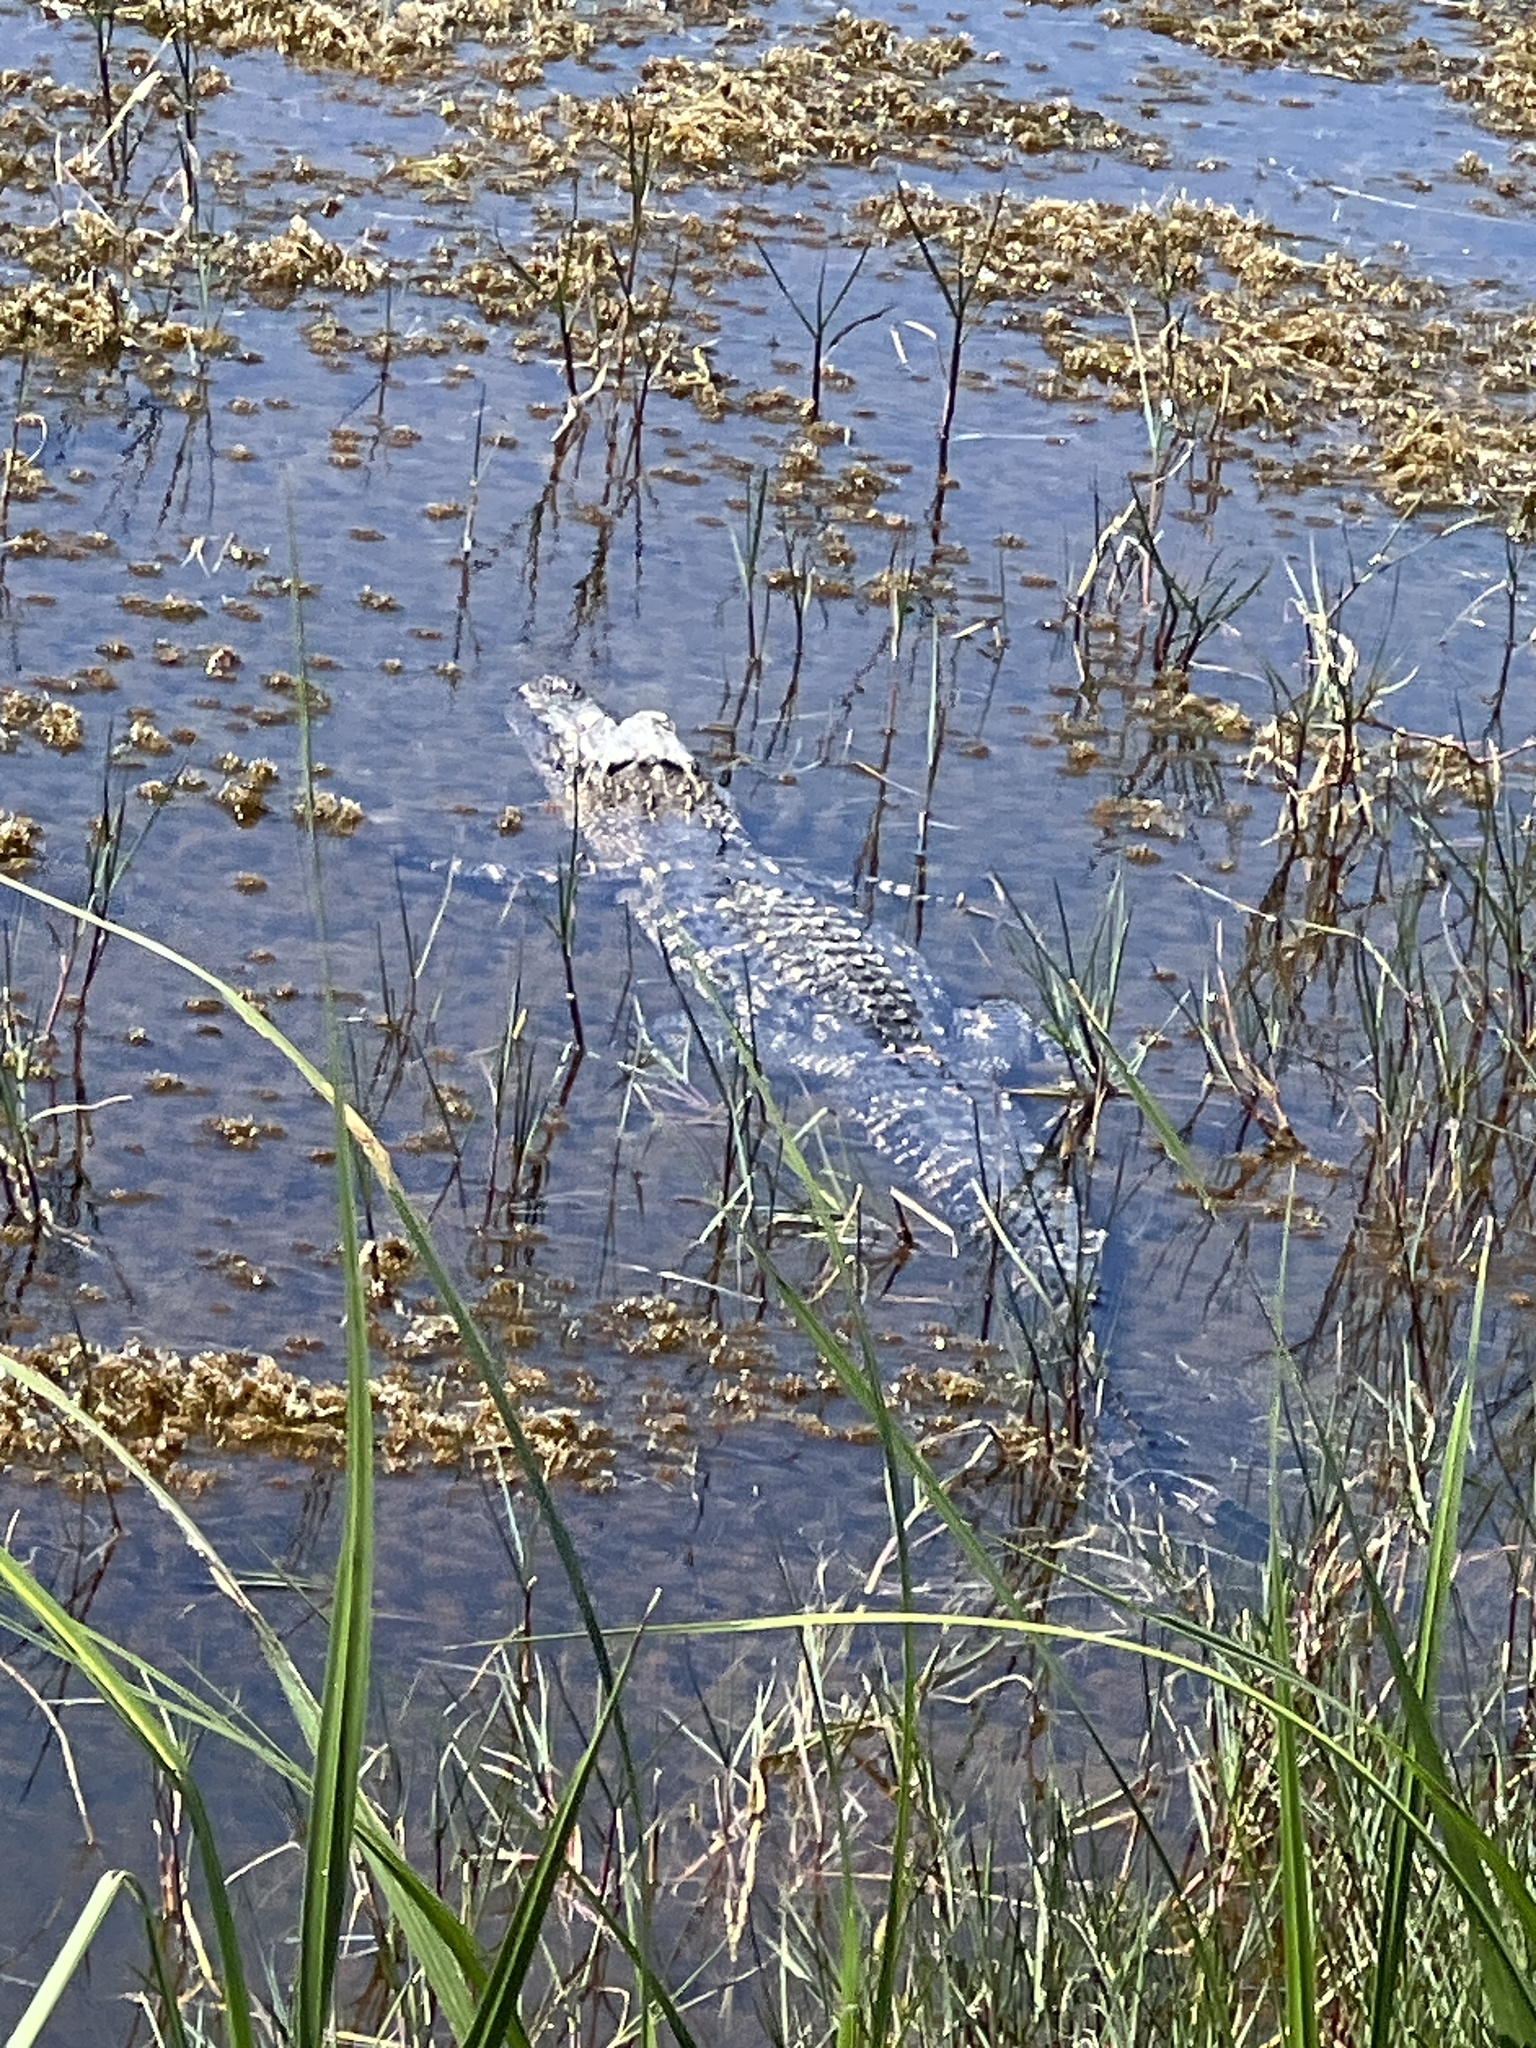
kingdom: Animalia
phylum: Chordata
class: Crocodylia
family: Alligatoridae
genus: Alligator
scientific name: Alligator mississippiensis
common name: American alligator
